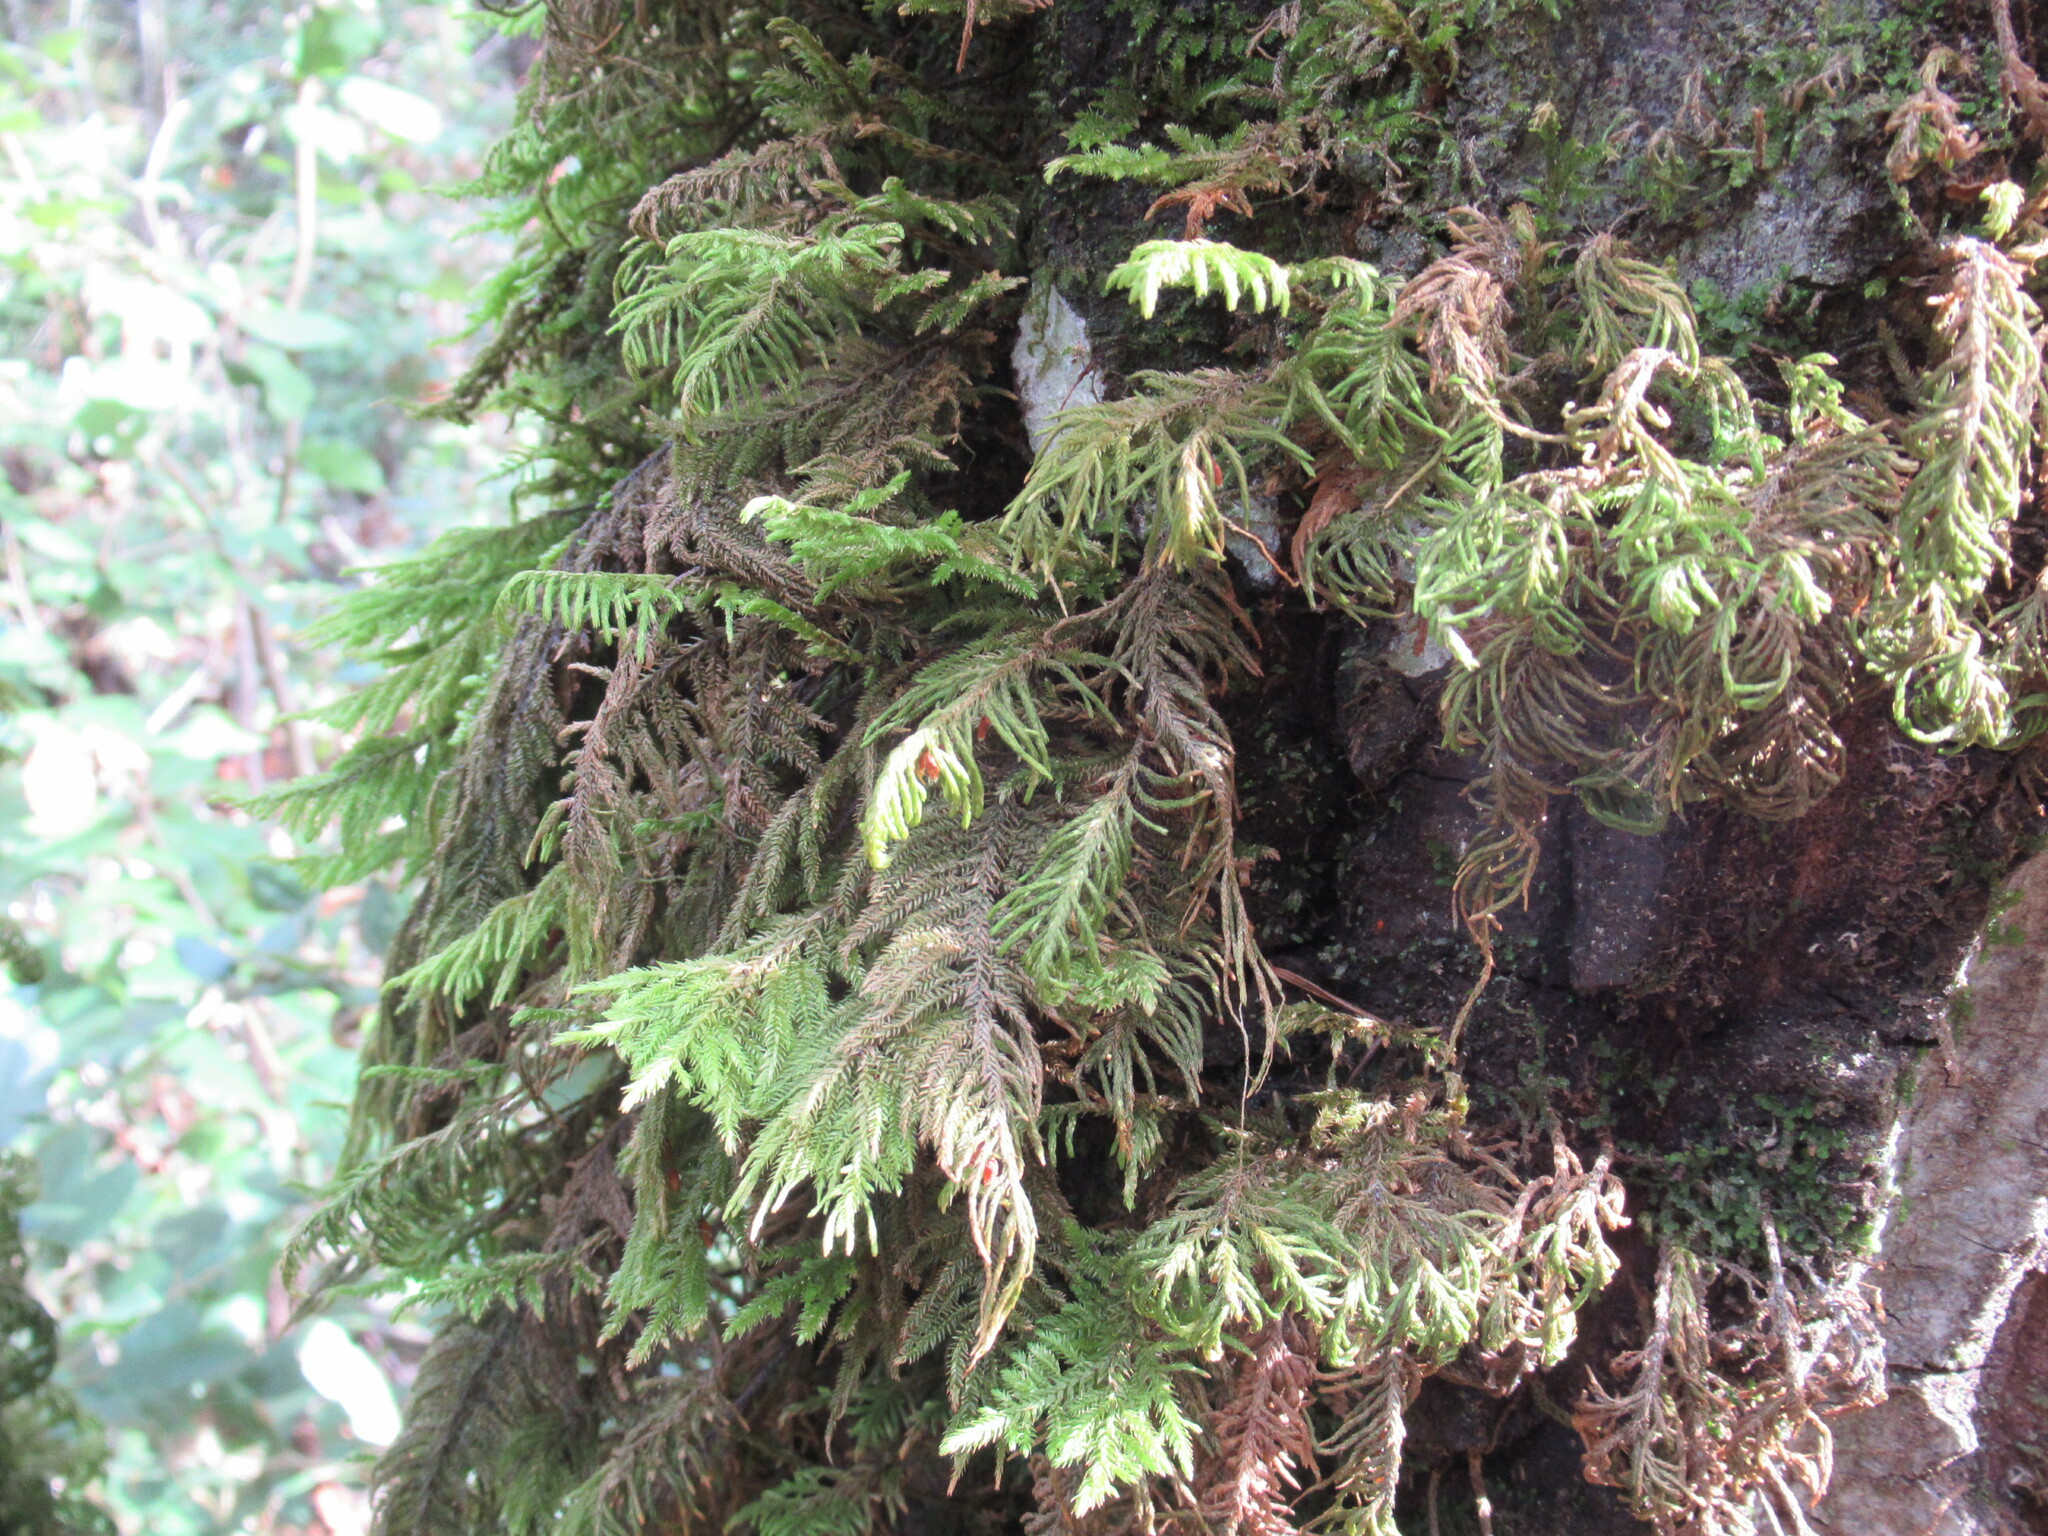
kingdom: Plantae
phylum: Bryophyta
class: Bryopsida
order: Hypnales
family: Cryphaeaceae
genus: Dendroalsia
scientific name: Dendroalsia abietina
